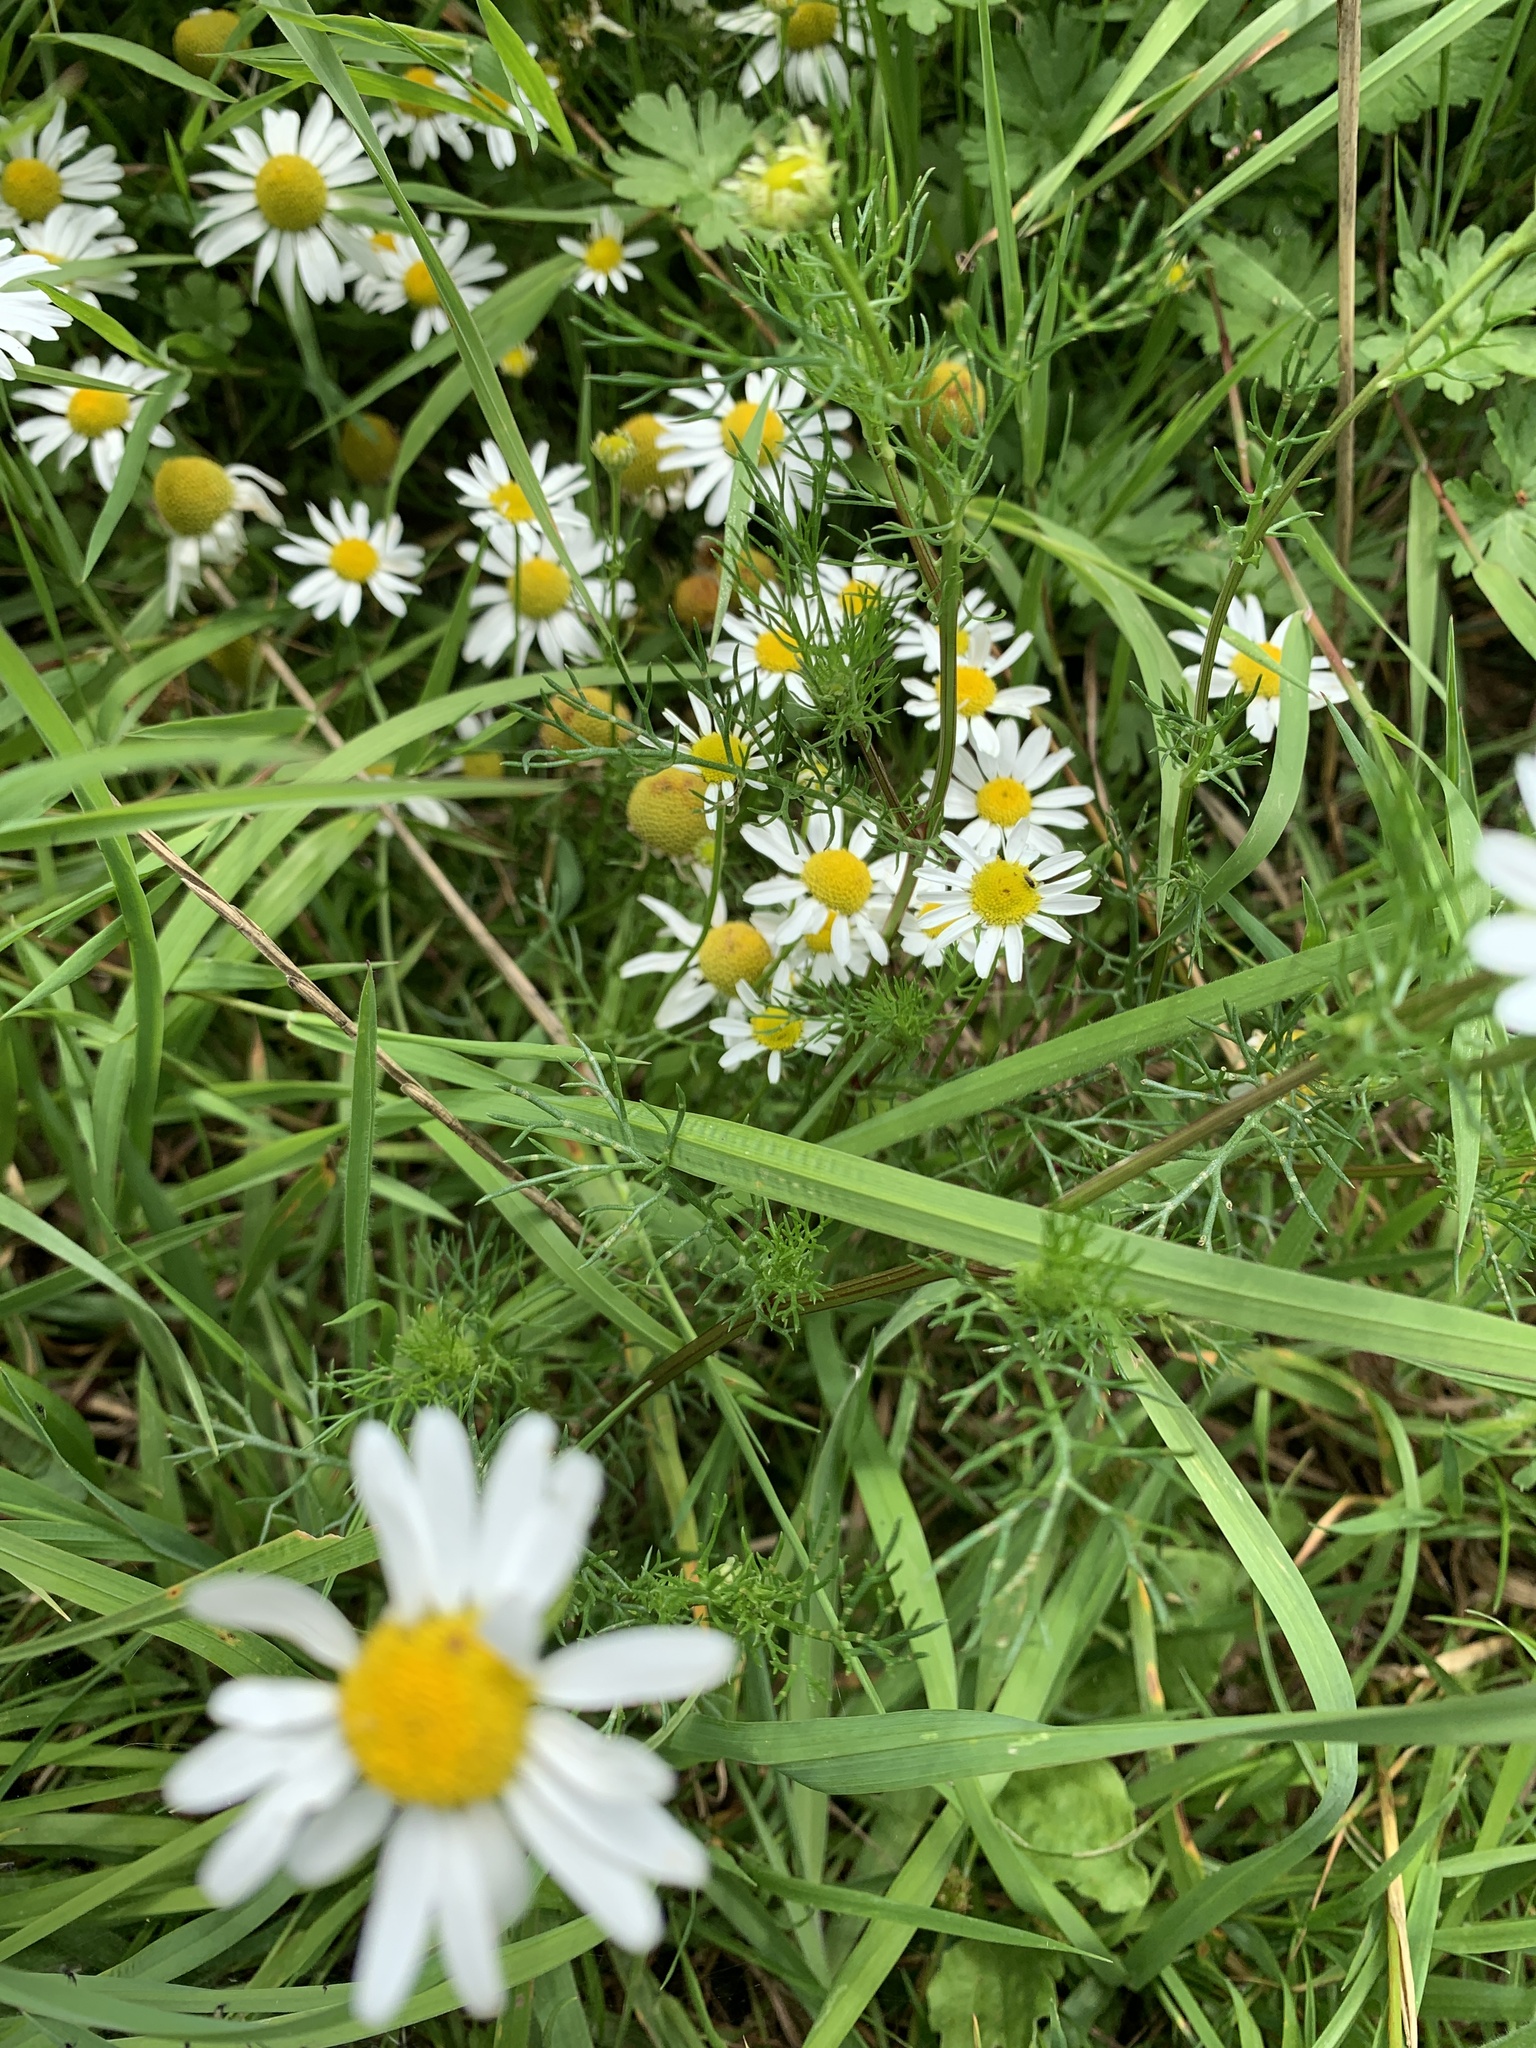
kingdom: Plantae
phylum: Tracheophyta
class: Magnoliopsida
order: Asterales
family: Asteraceae
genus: Tripleurospermum
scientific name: Tripleurospermum inodorum
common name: Scentless mayweed
